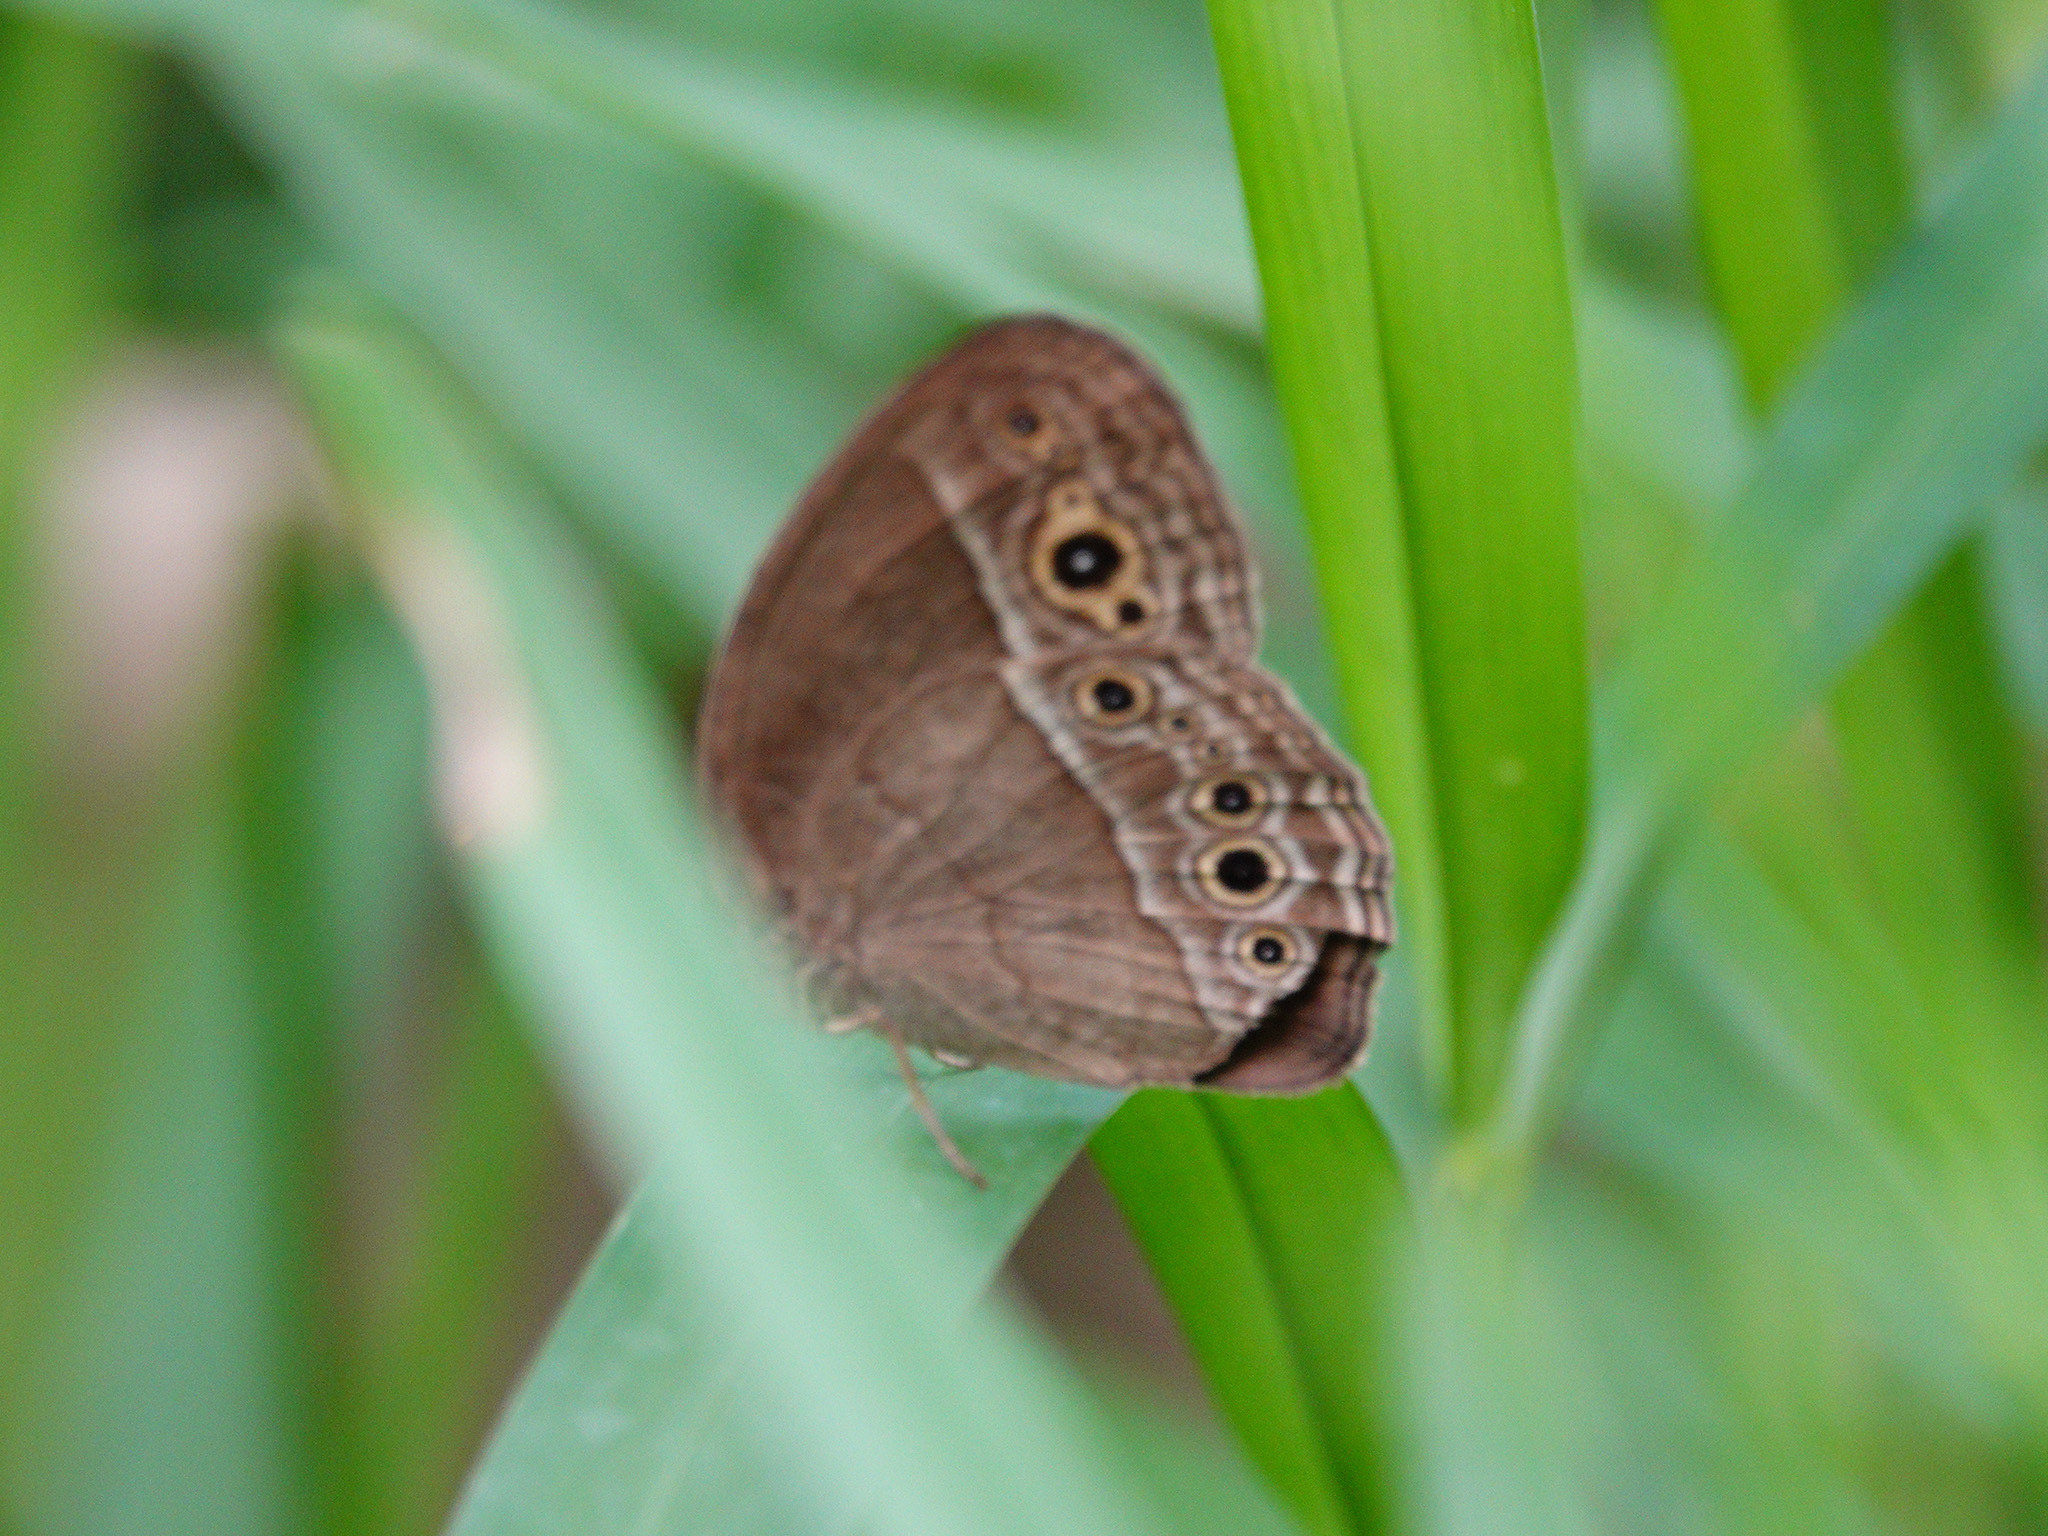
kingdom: Animalia
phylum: Arthropoda
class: Insecta
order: Lepidoptera
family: Nymphalidae
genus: Mycalesis
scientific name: Mycalesis perseoides
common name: Burmese bushbrown
